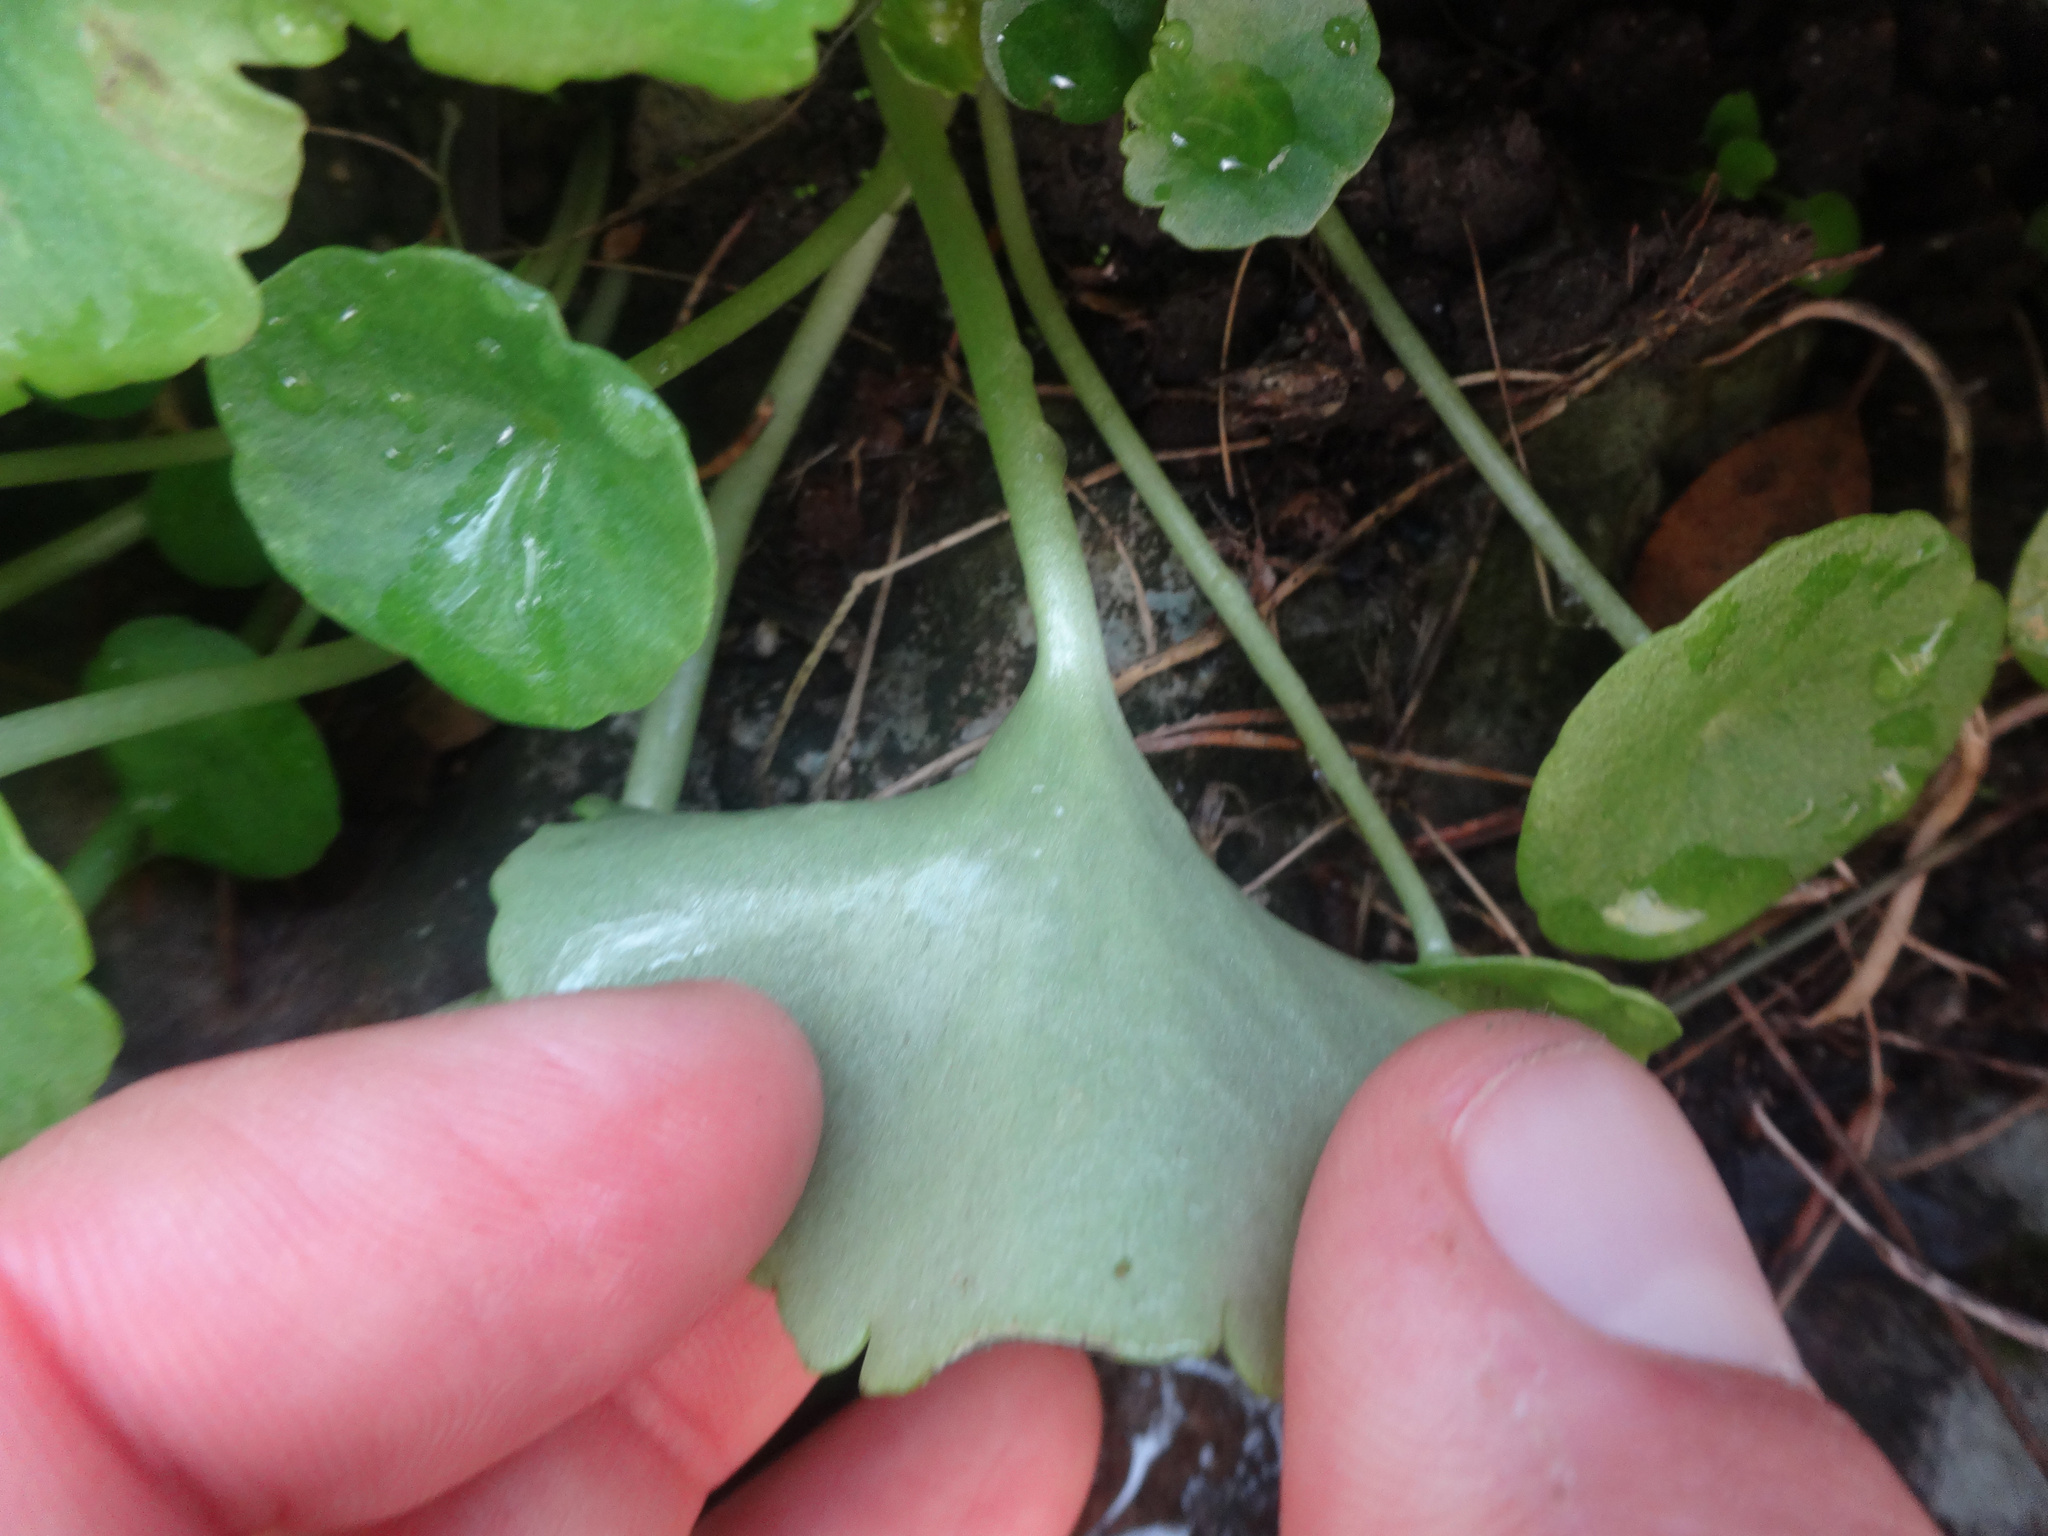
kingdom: Plantae
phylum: Tracheophyta
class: Magnoliopsida
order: Saxifragales
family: Crassulaceae
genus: Umbilicus
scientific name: Umbilicus rupestris
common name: Navelwort
